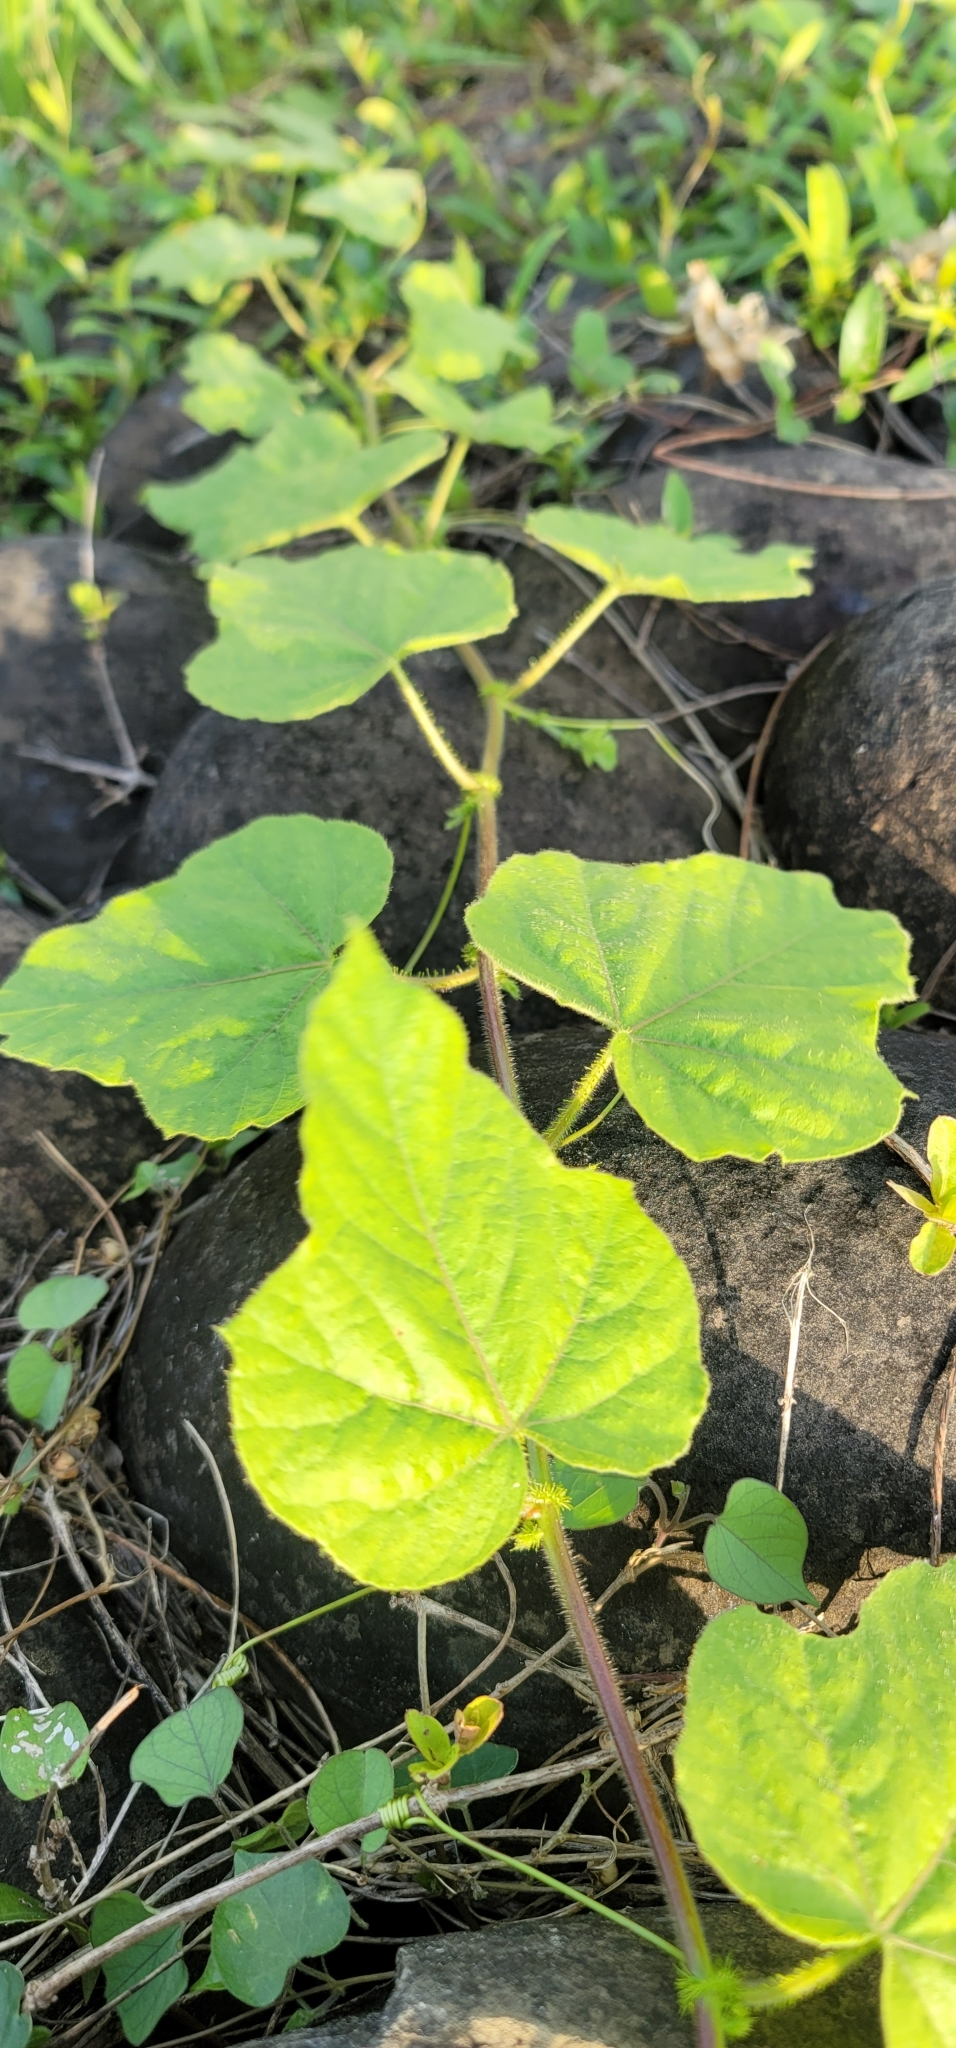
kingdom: Plantae
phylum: Tracheophyta
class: Magnoliopsida
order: Malpighiales
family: Passifloraceae
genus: Passiflora
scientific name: Passiflora vesicaria
